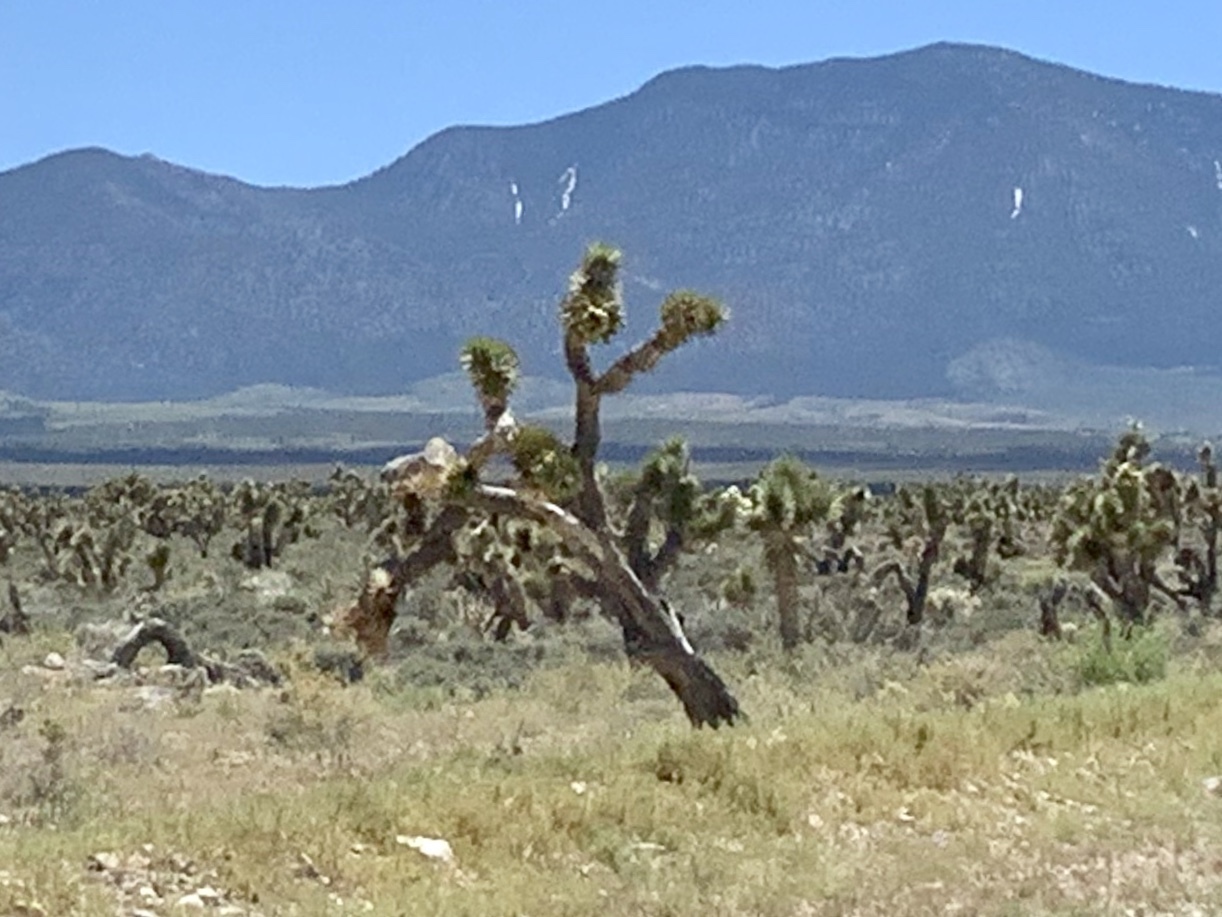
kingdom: Plantae
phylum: Tracheophyta
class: Liliopsida
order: Asparagales
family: Asparagaceae
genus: Yucca
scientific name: Yucca brevifolia
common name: Joshua tree
